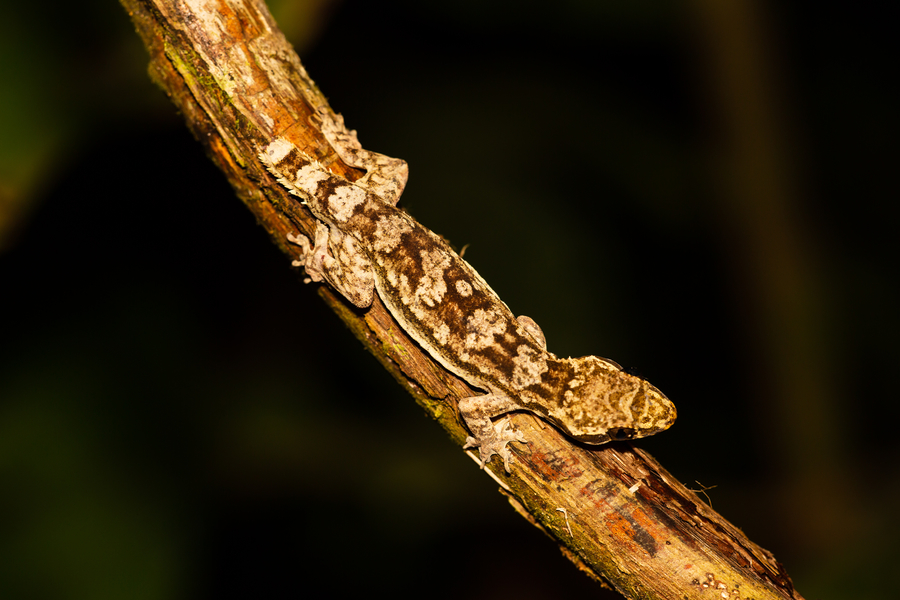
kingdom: Animalia
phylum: Chordata
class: Squamata
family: Gekkonidae
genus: Hemidactylus
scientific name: Hemidactylus richardsonii
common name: Richardson's leaf-toed gecko
